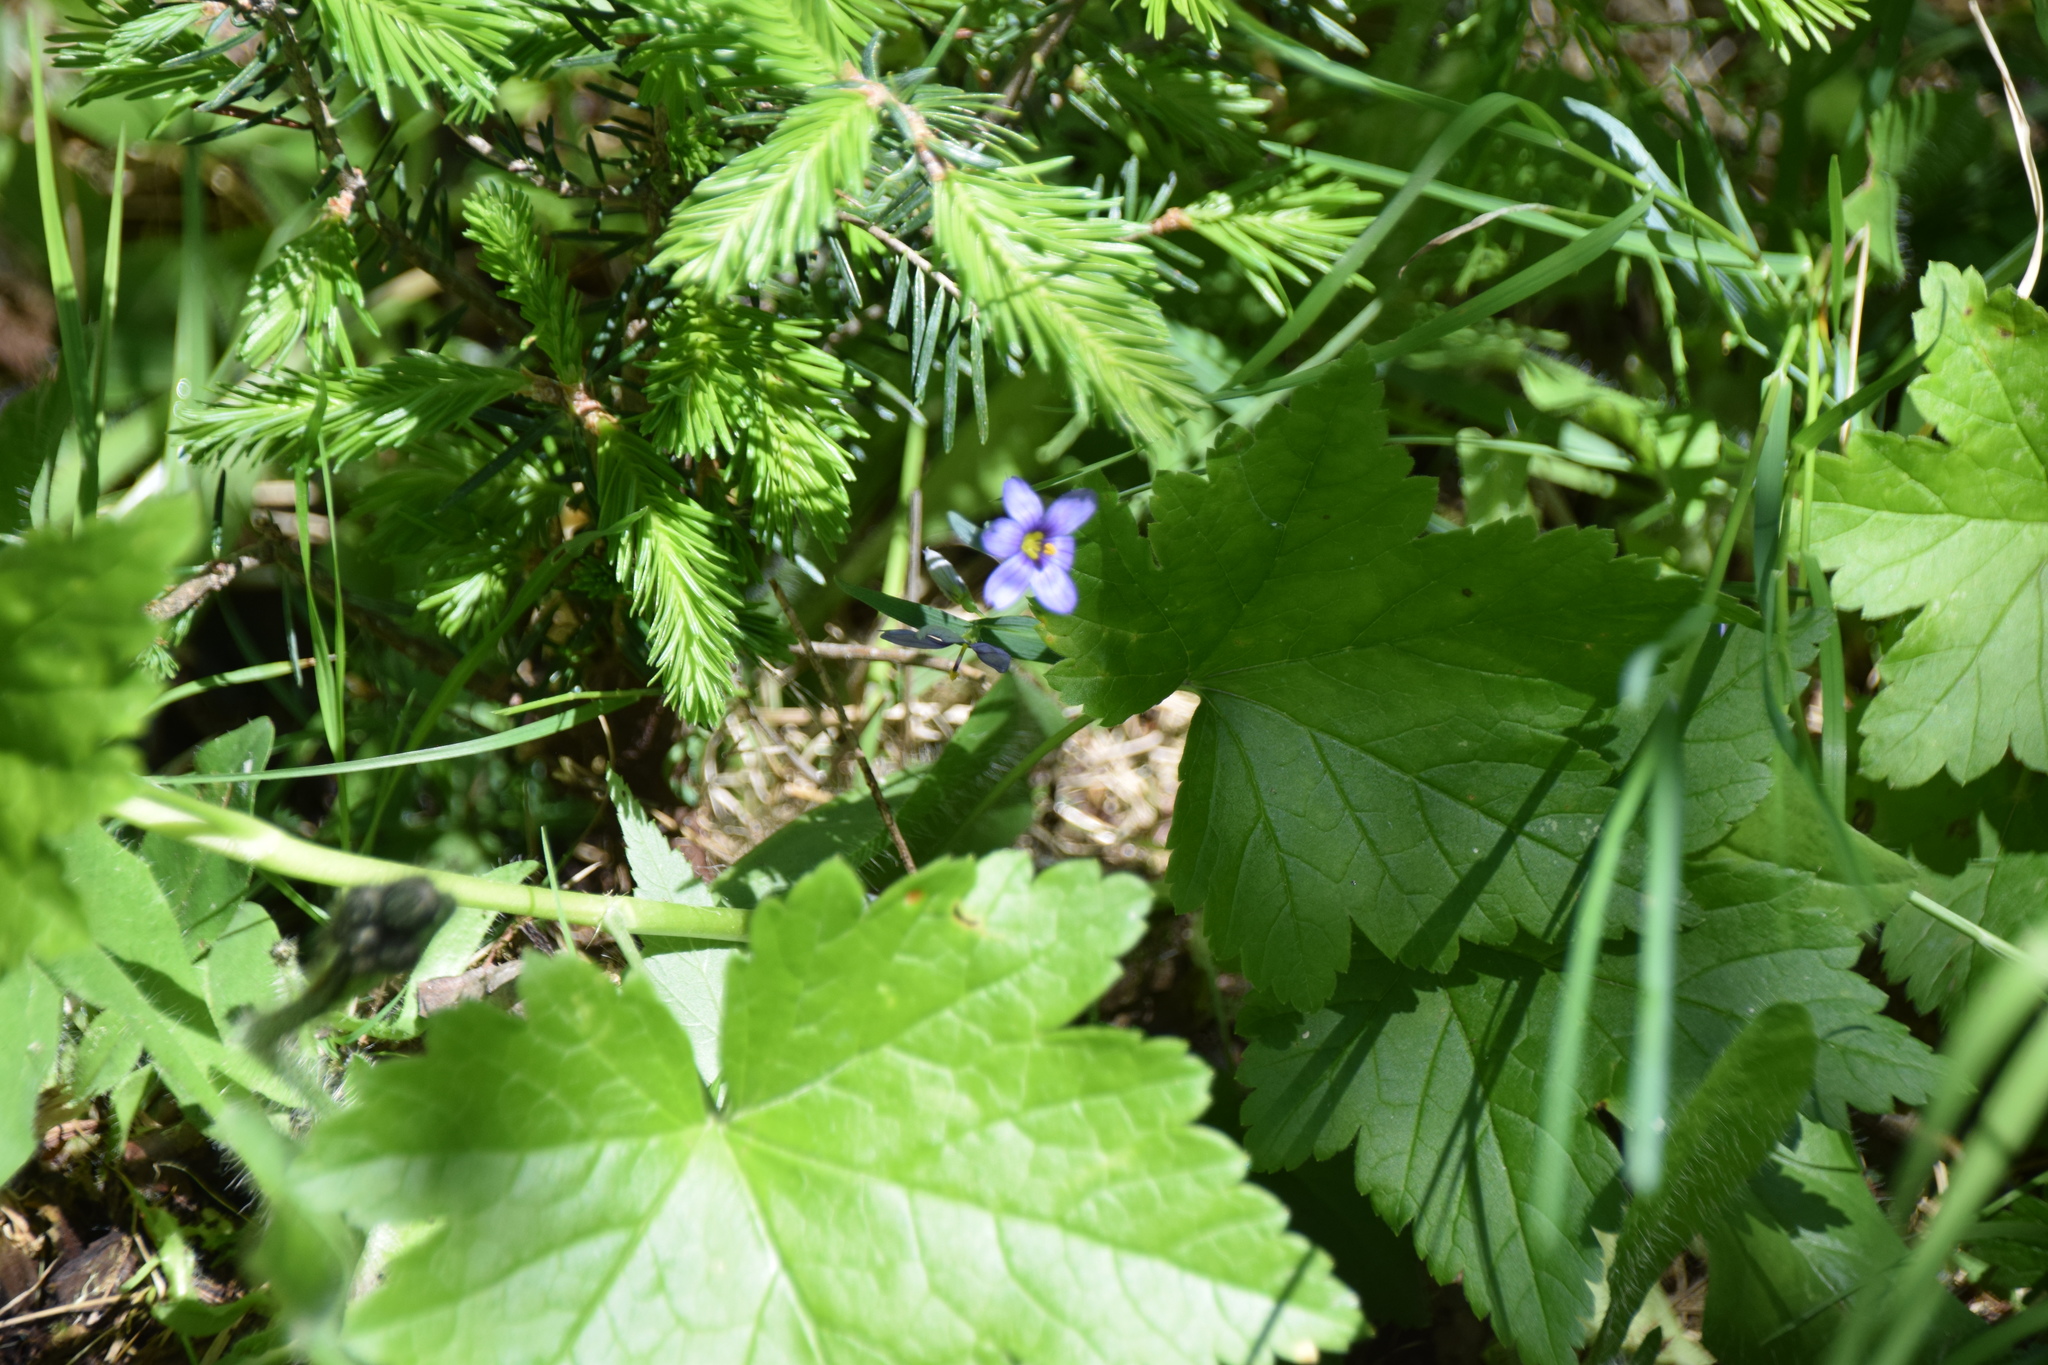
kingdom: Plantae
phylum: Tracheophyta
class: Liliopsida
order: Asparagales
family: Iridaceae
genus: Sisyrinchium
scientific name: Sisyrinchium montanum
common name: American blue-eyed-grass
